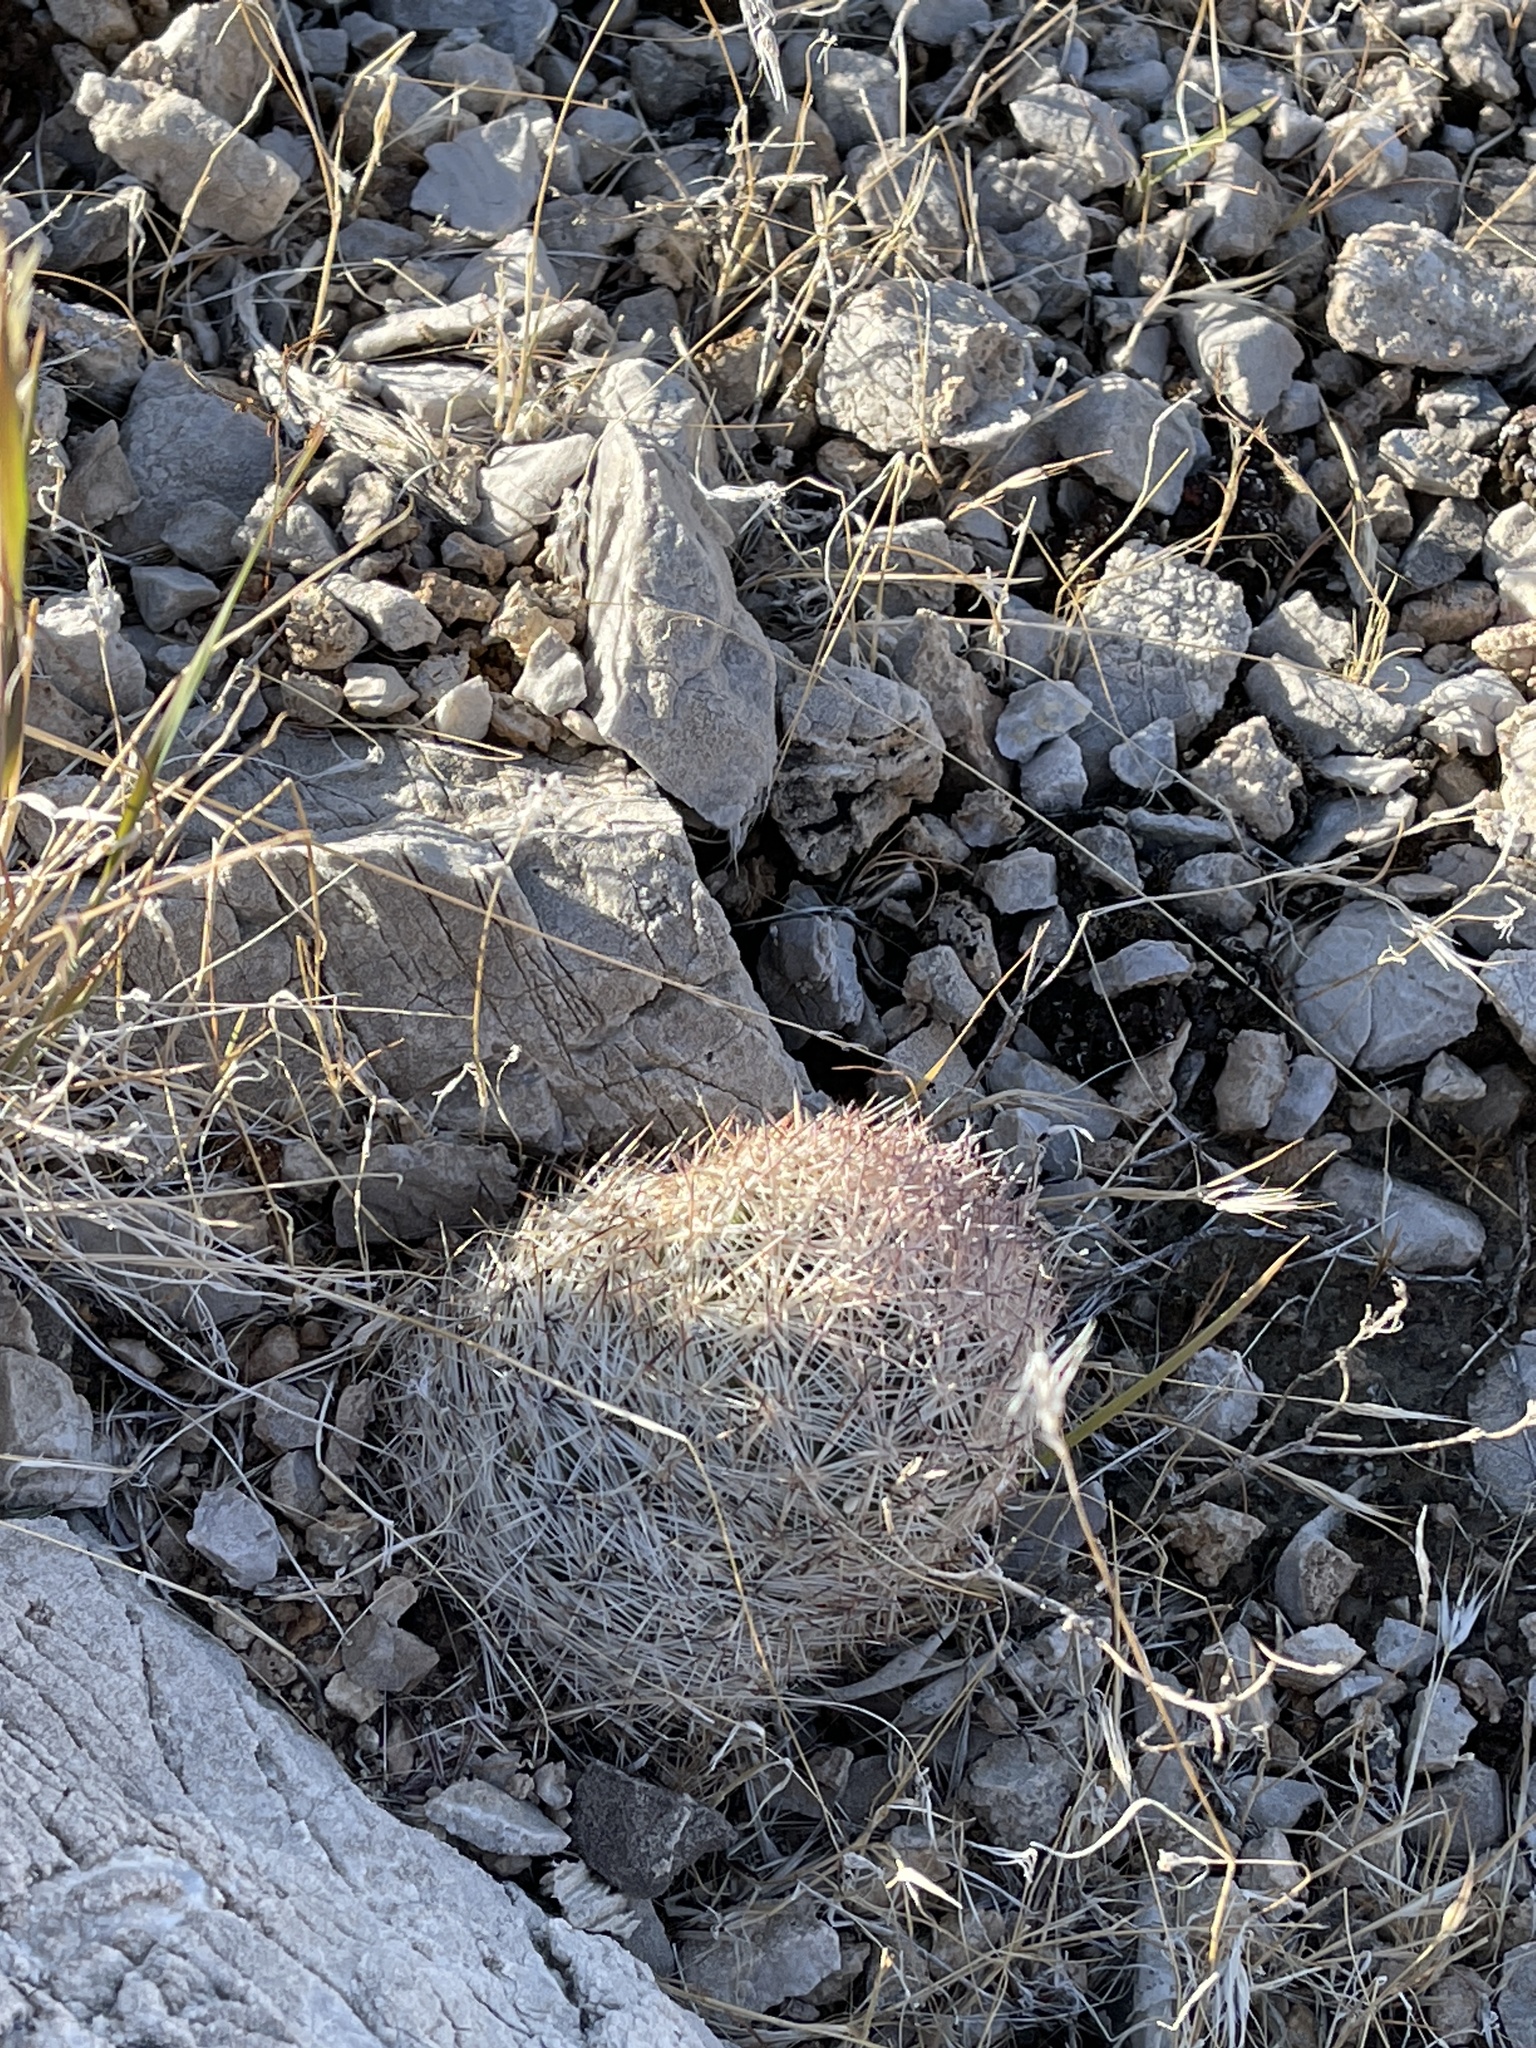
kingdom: Plantae
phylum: Tracheophyta
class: Magnoliopsida
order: Caryophyllales
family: Cactaceae
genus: Pelecyphora
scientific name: Pelecyphora dasyacantha
